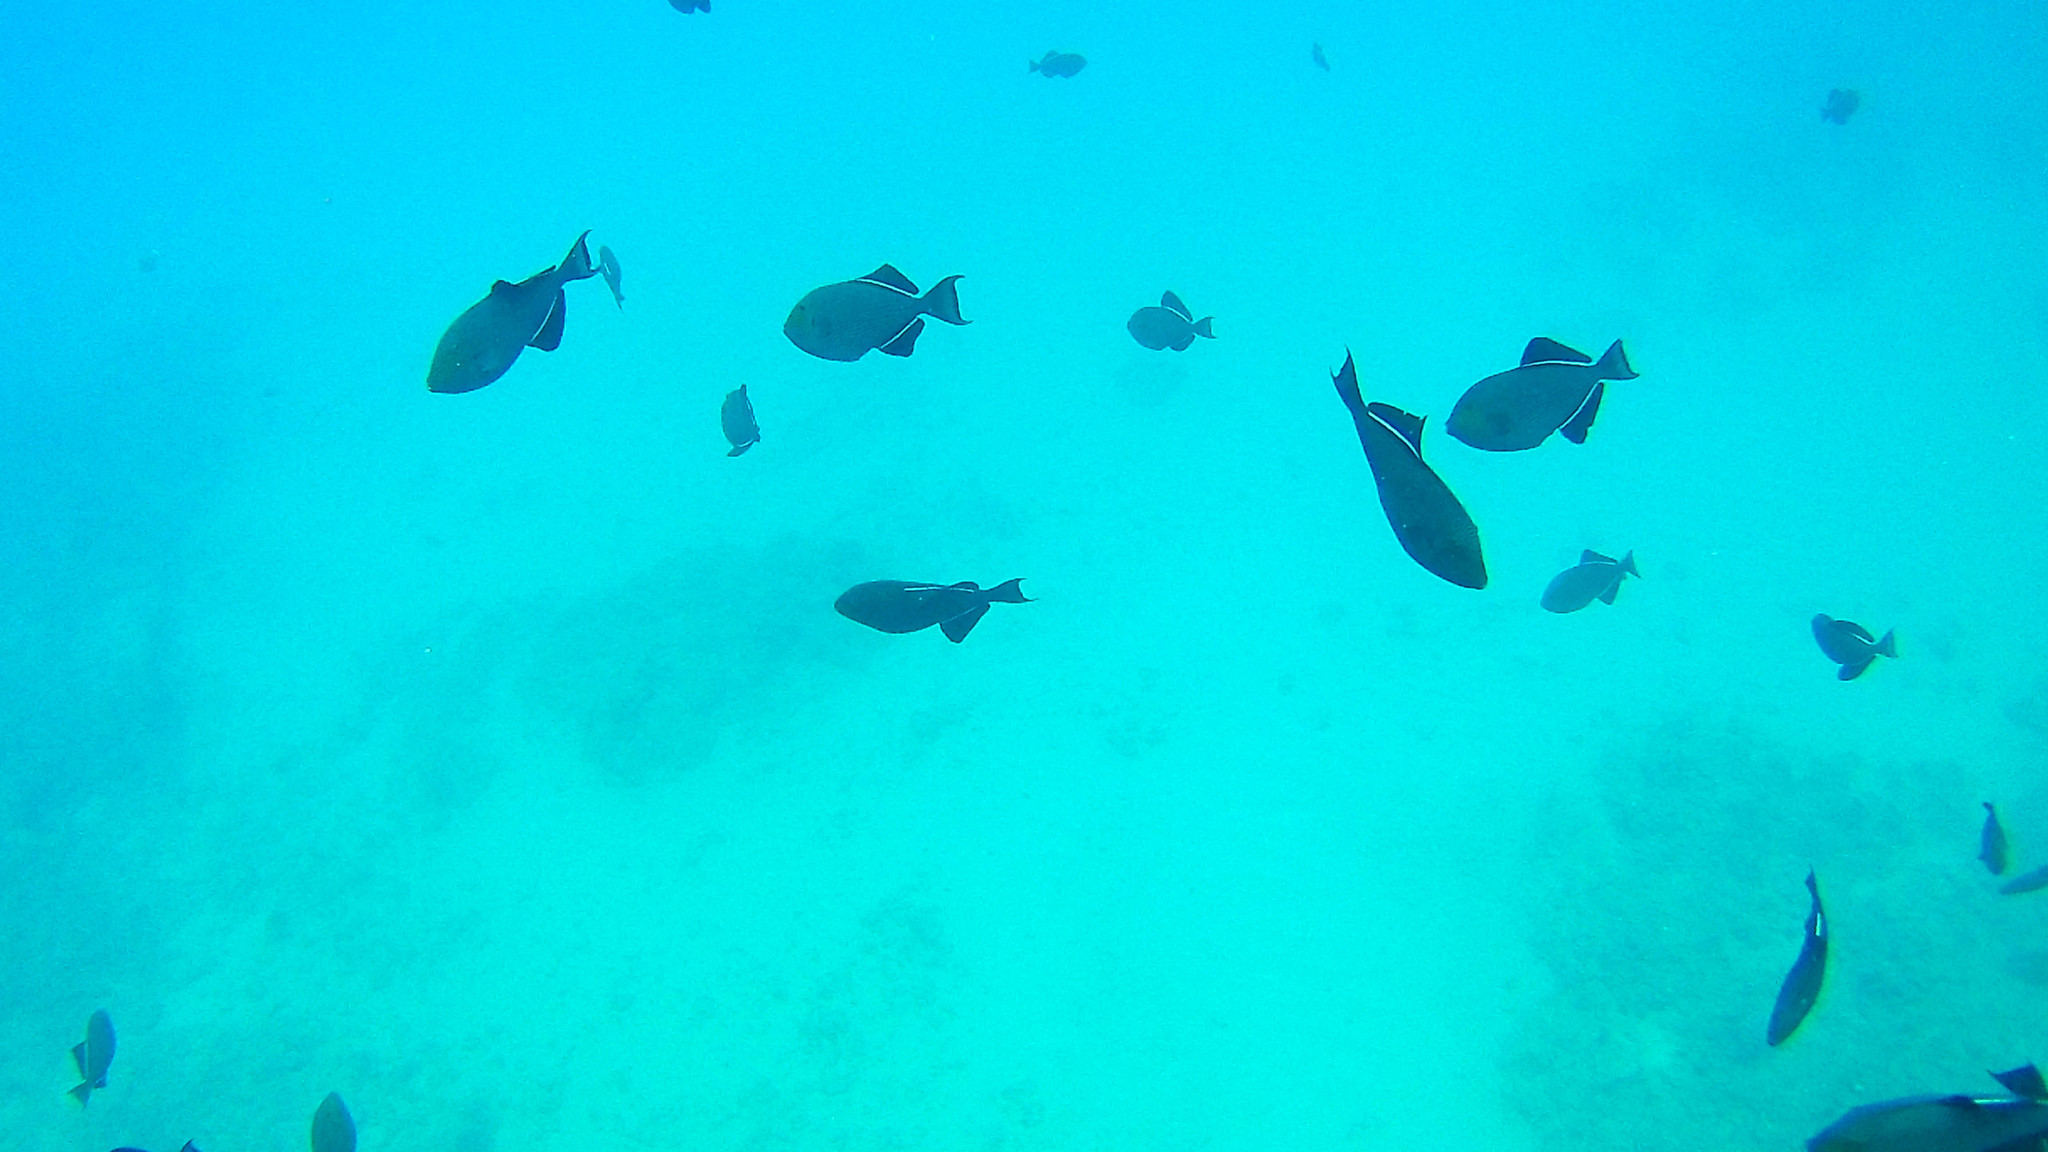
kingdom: Animalia
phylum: Chordata
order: Tetraodontiformes
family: Balistidae
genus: Melichthys
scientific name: Melichthys niger
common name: Black durgon
